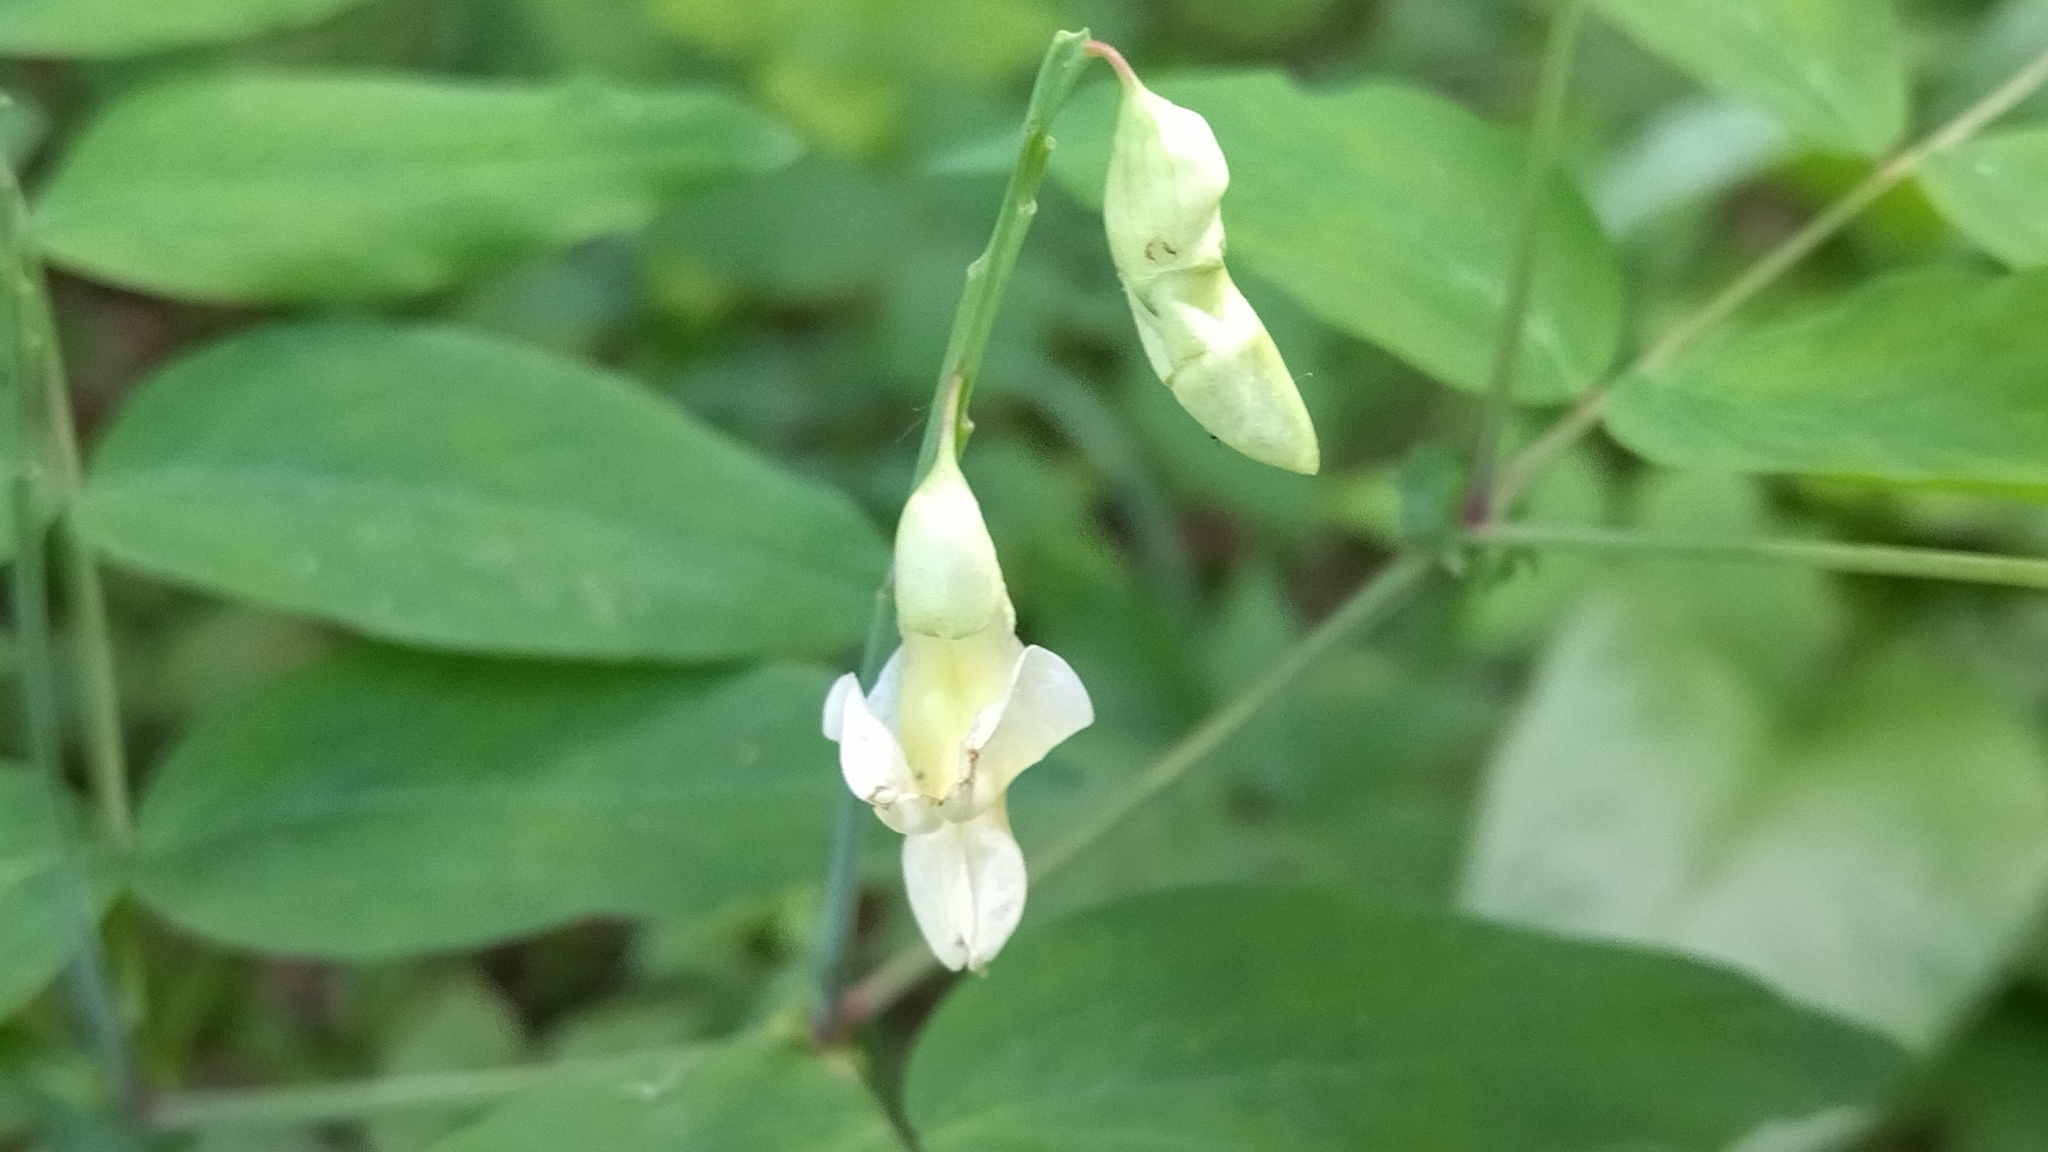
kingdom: Plantae
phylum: Tracheophyta
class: Magnoliopsida
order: Fabales
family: Fabaceae
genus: Lathyrus
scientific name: Lathyrus gmelinii
